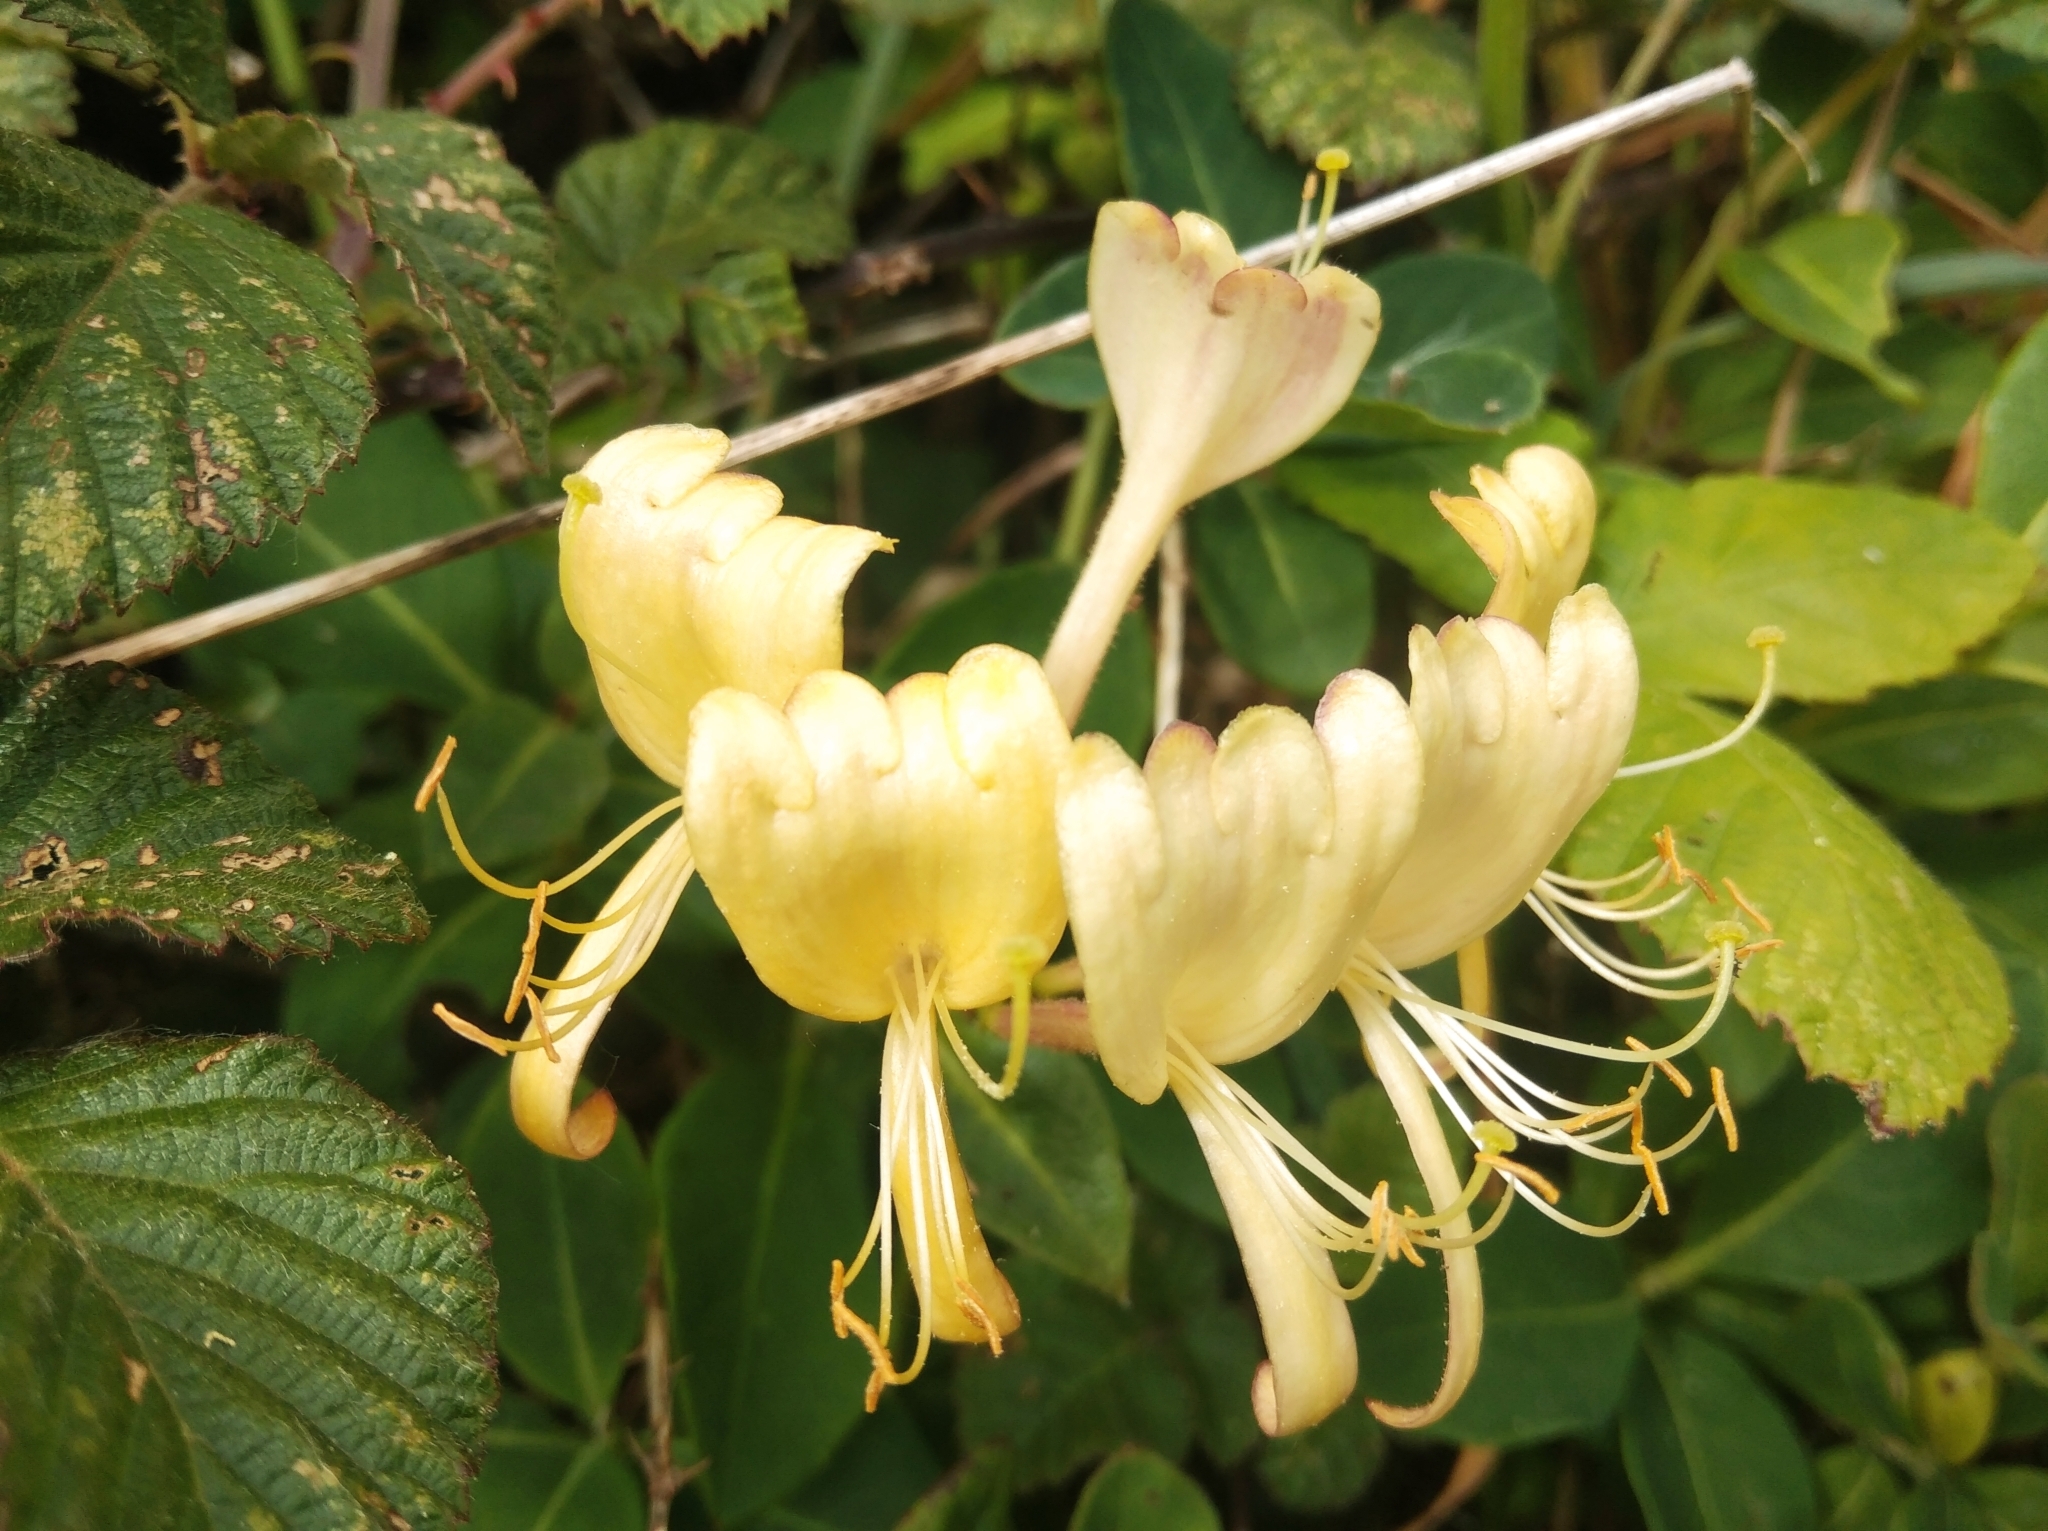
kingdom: Plantae
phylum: Tracheophyta
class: Magnoliopsida
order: Dipsacales
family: Caprifoliaceae
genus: Lonicera
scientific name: Lonicera periclymenum
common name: European honeysuckle
